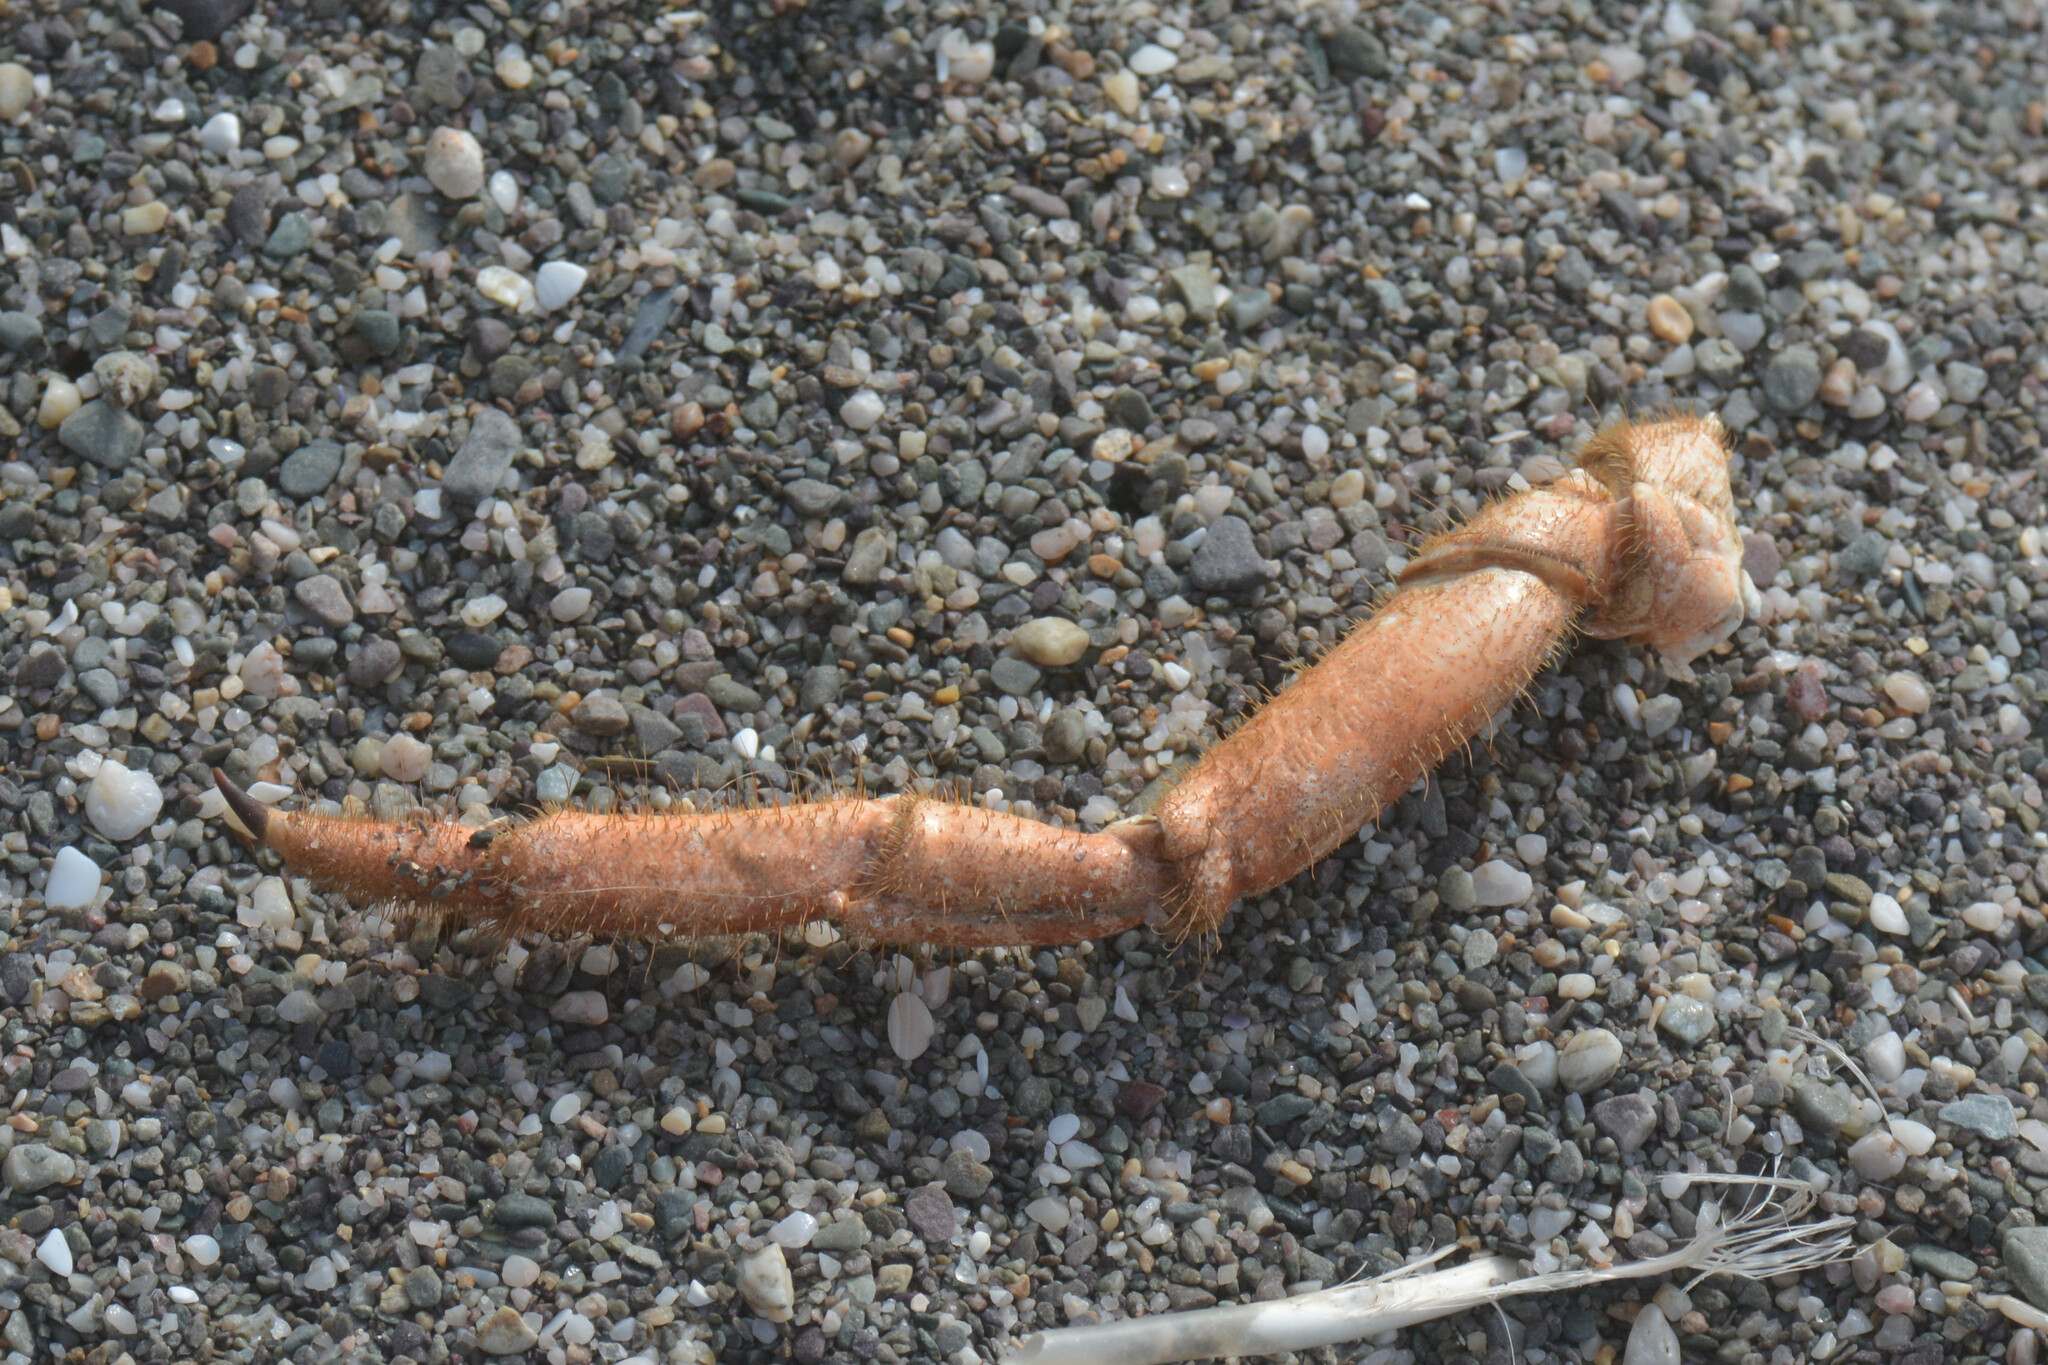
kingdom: Animalia
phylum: Arthropoda
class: Malacostraca
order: Decapoda
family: Cancridae
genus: Cancer
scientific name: Cancer pagurus
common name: Edible crab
